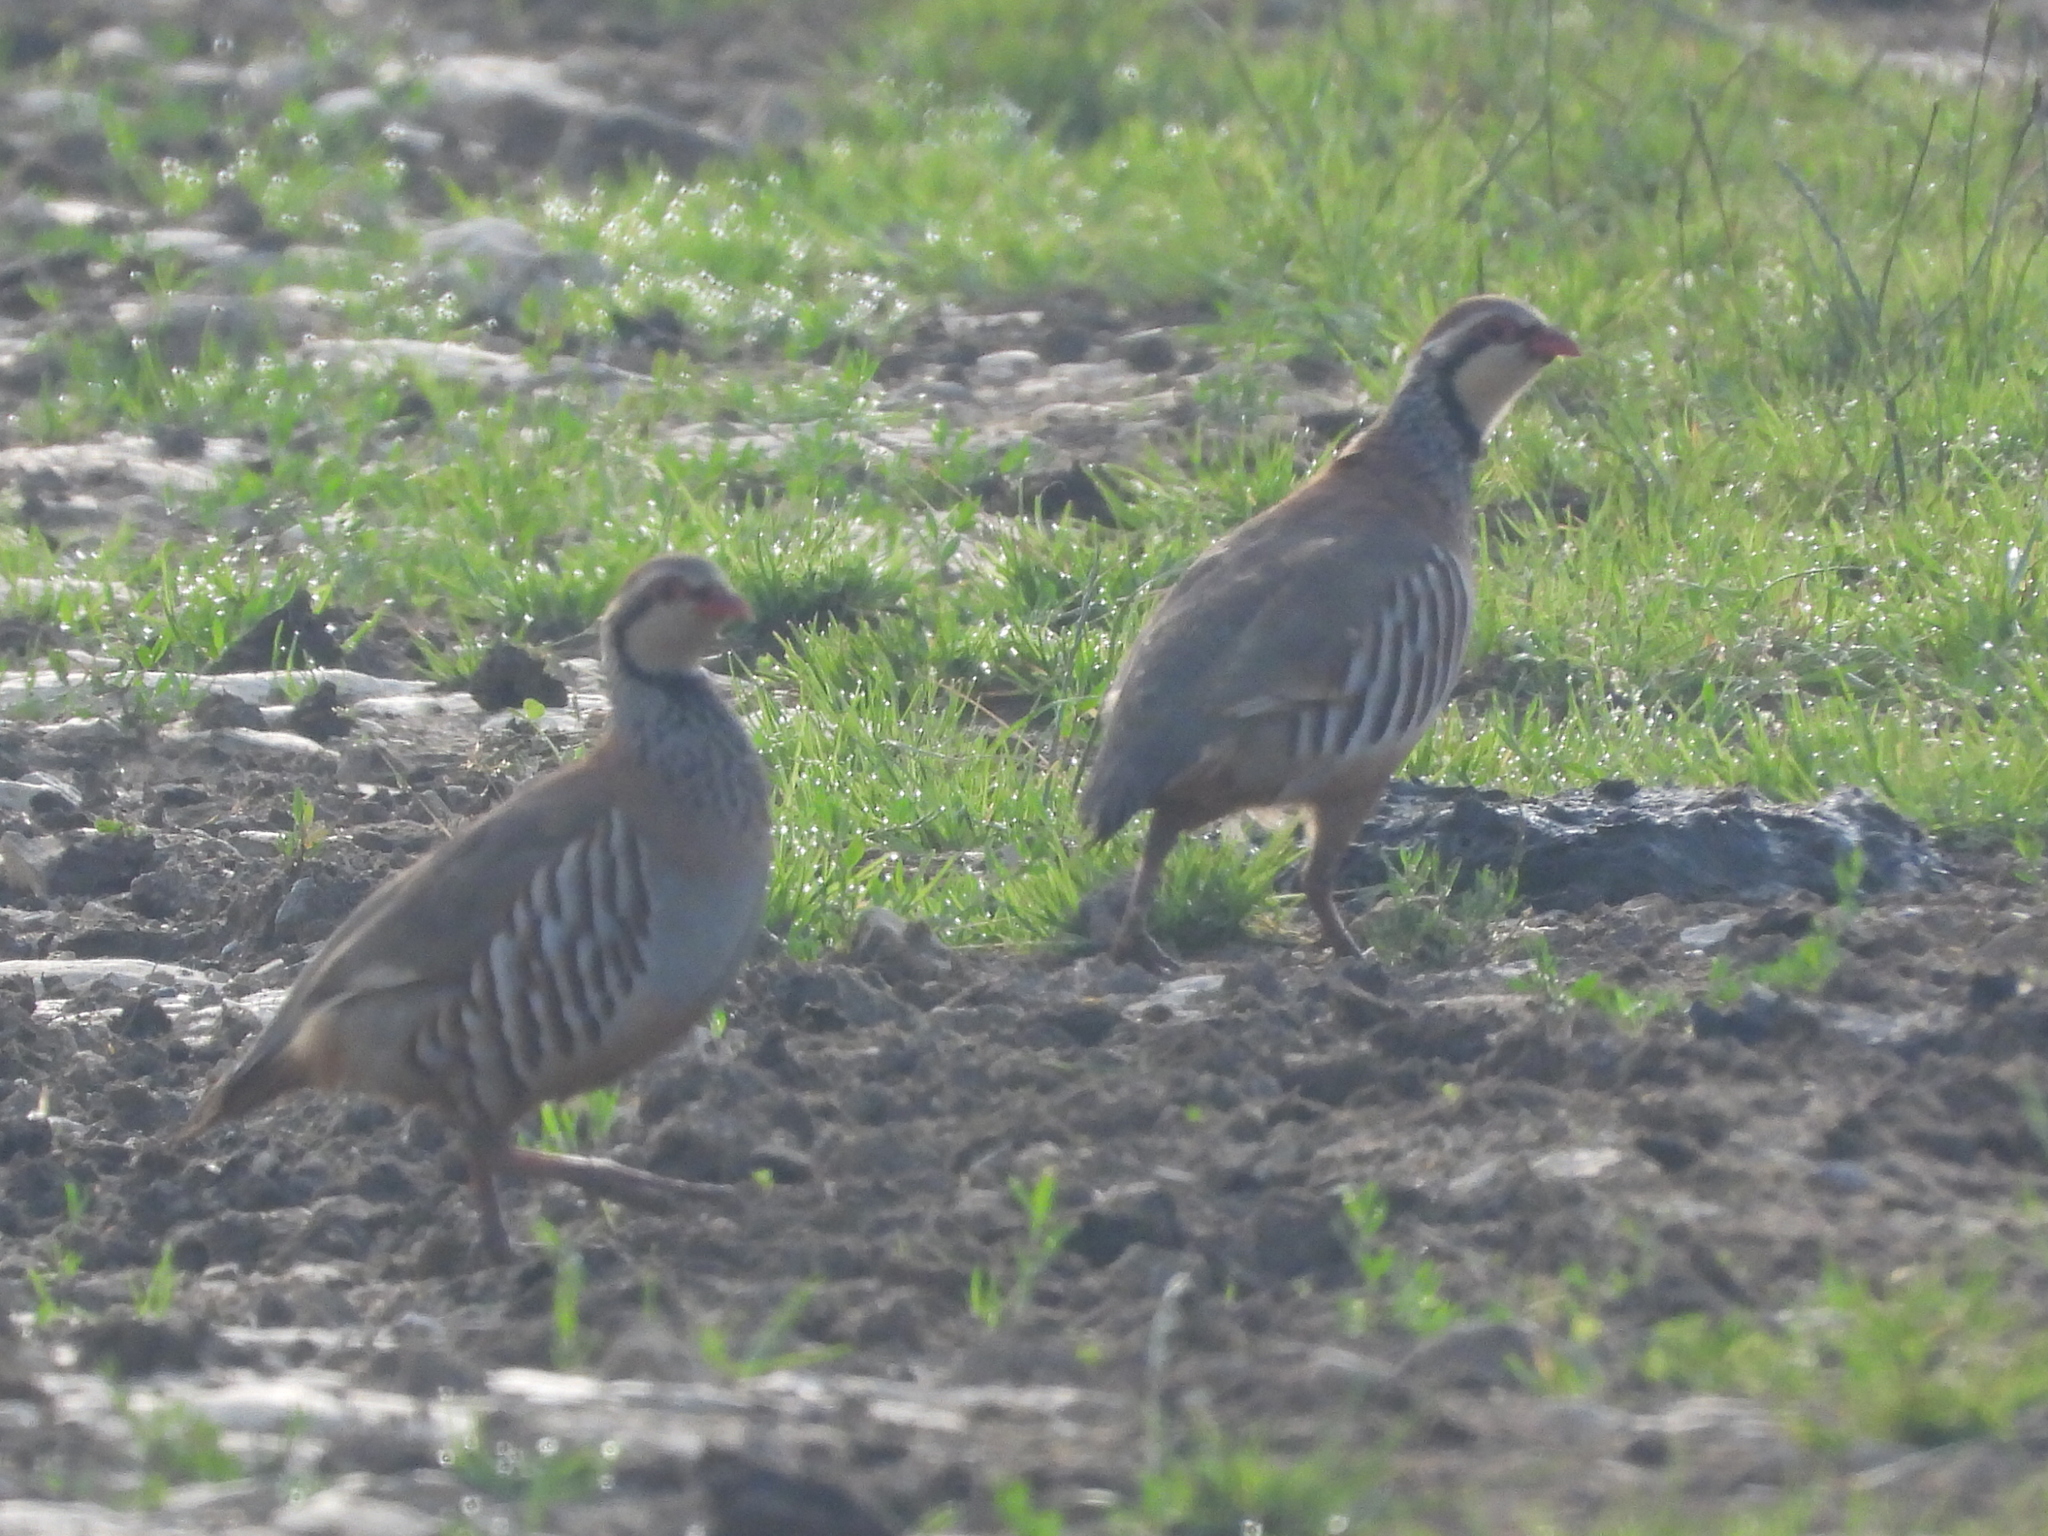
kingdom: Animalia
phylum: Chordata
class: Aves
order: Galliformes
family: Phasianidae
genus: Alectoris
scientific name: Alectoris rufa
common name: Red-legged partridge
